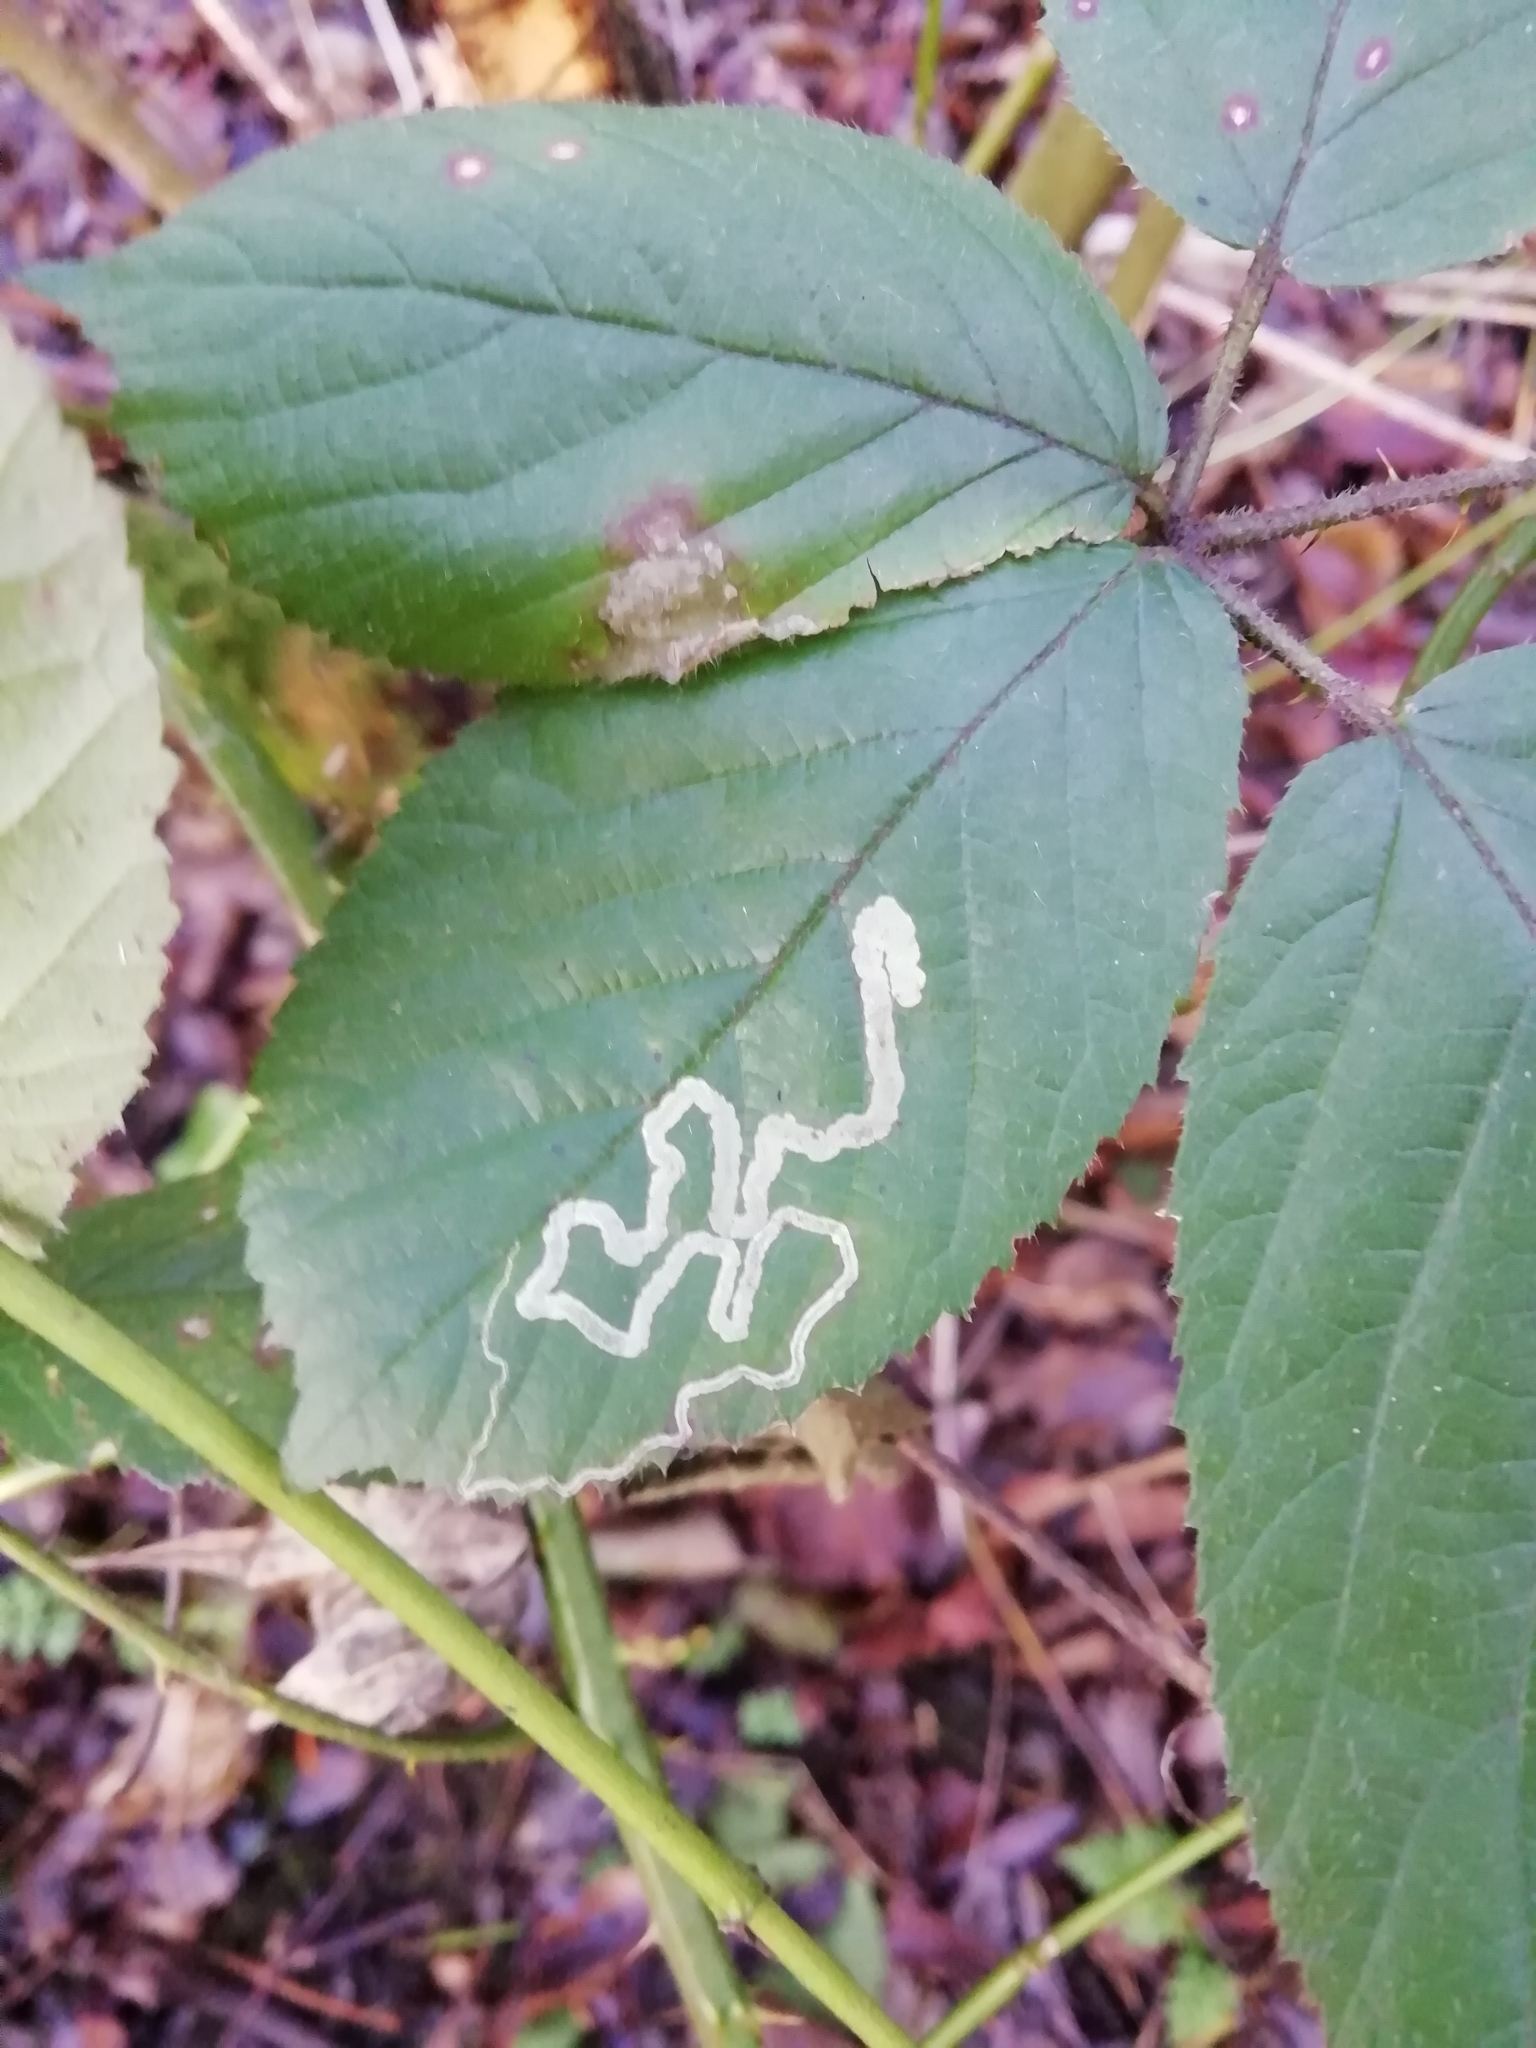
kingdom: Animalia
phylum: Arthropoda
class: Insecta
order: Lepidoptera
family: Nepticulidae
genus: Stigmella
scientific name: Stigmella aurella
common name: Golden pigmy
